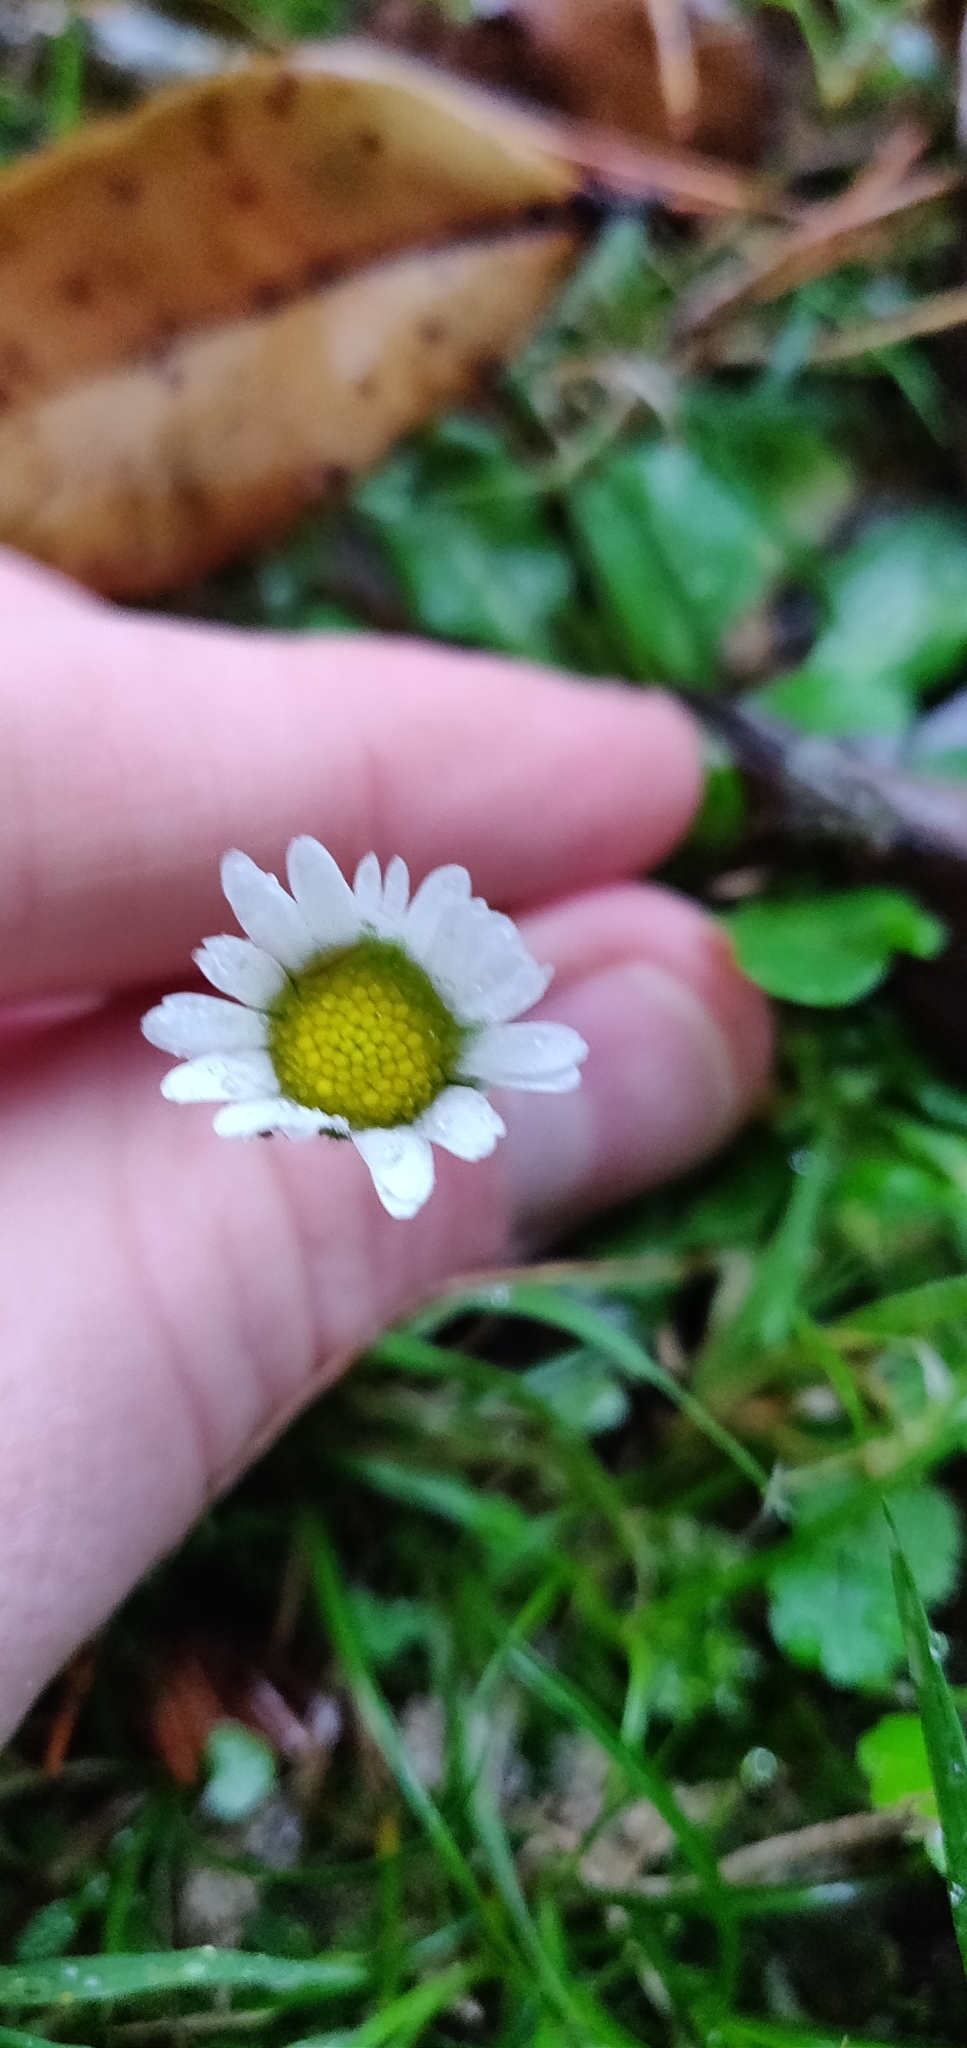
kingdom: Plantae
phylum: Tracheophyta
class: Magnoliopsida
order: Asterales
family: Asteraceae
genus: Bellis
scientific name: Bellis perennis
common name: Lawndaisy
